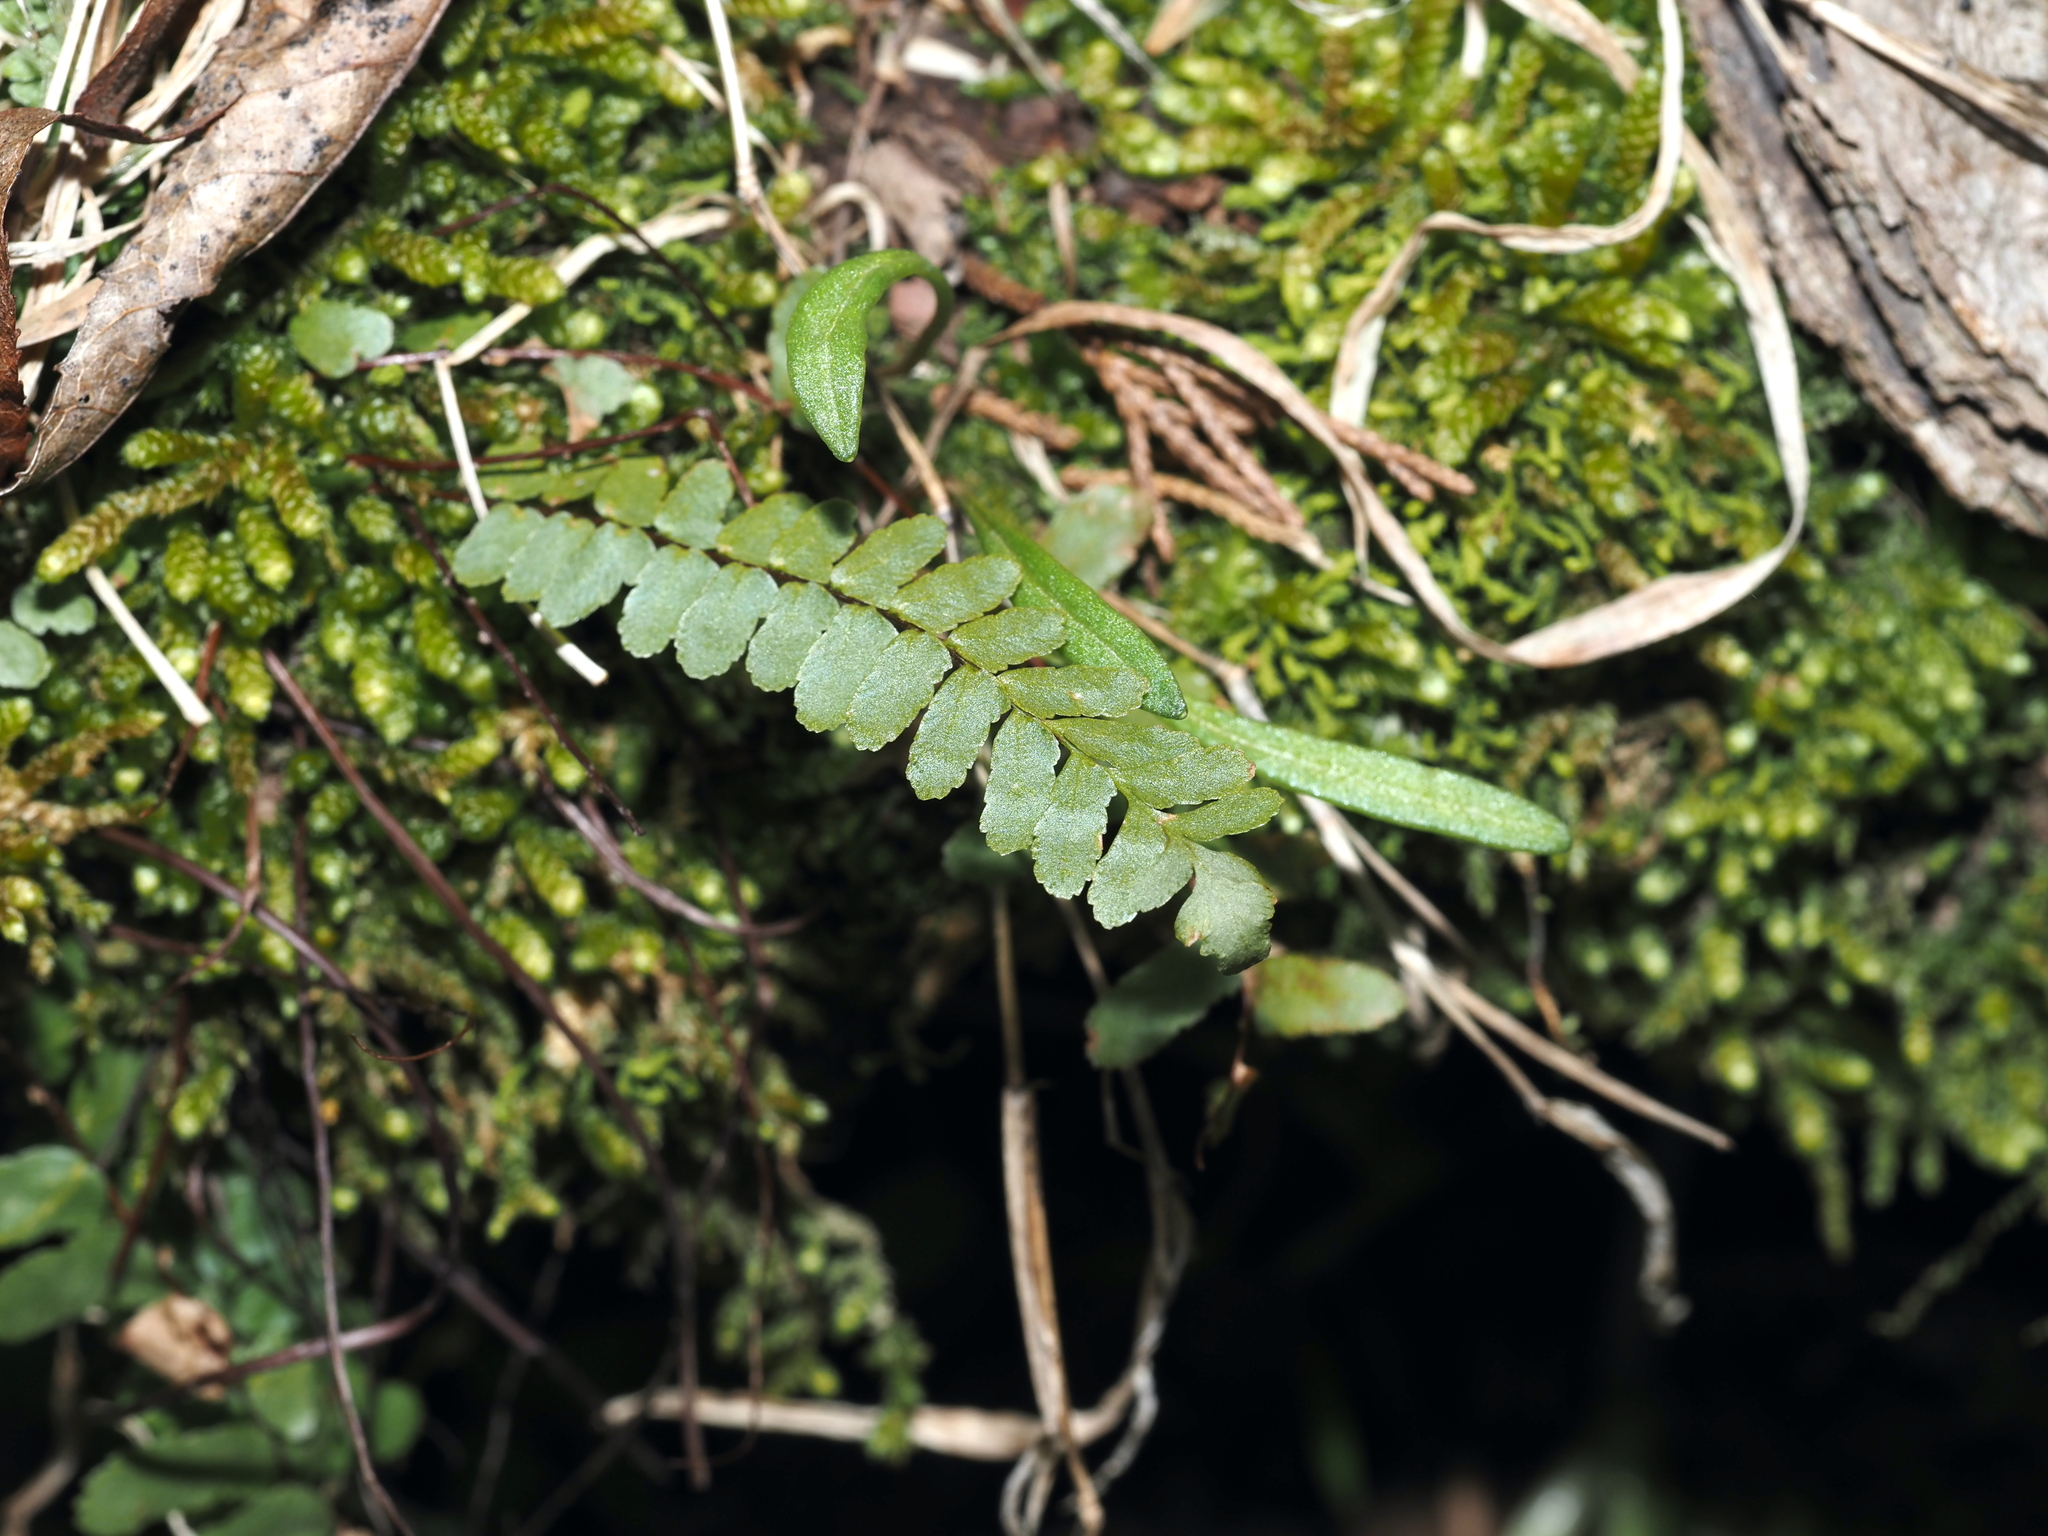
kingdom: Plantae
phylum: Tracheophyta
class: Polypodiopsida
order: Polypodiales
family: Aspleniaceae
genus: Asplenium
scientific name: Asplenium platyneuron
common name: Ebony spleenwort
